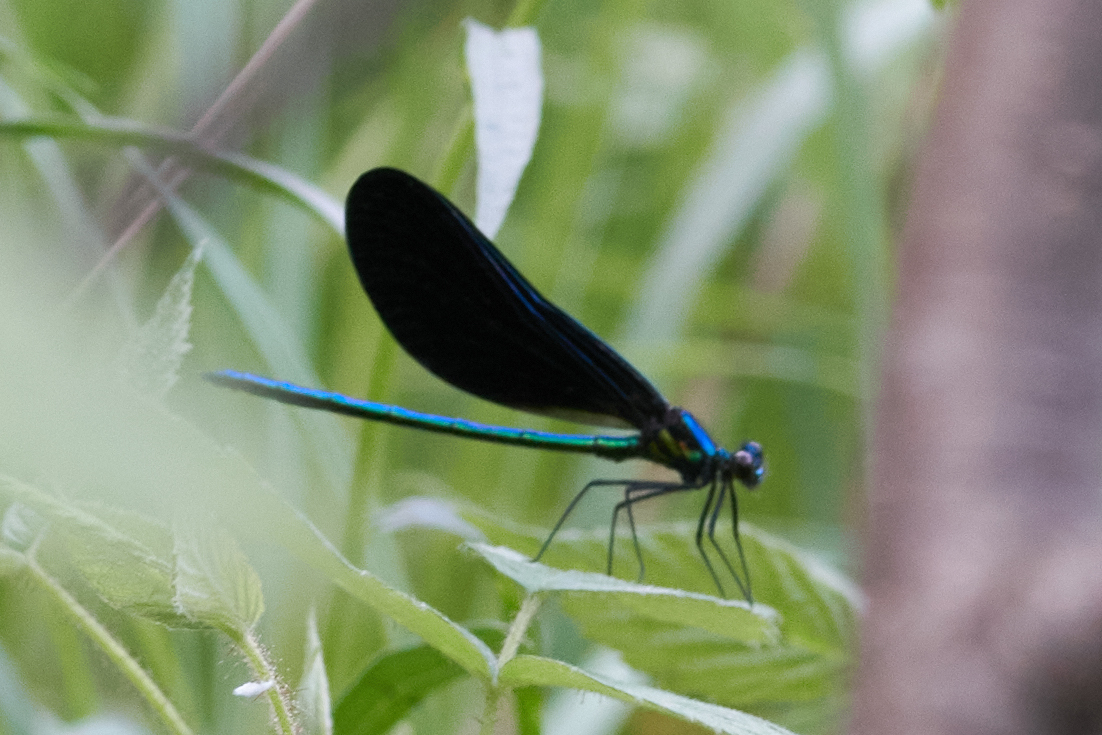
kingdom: Animalia
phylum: Arthropoda
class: Insecta
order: Odonata
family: Calopterygidae
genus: Calopteryx
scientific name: Calopteryx maculata
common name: Ebony jewelwing
